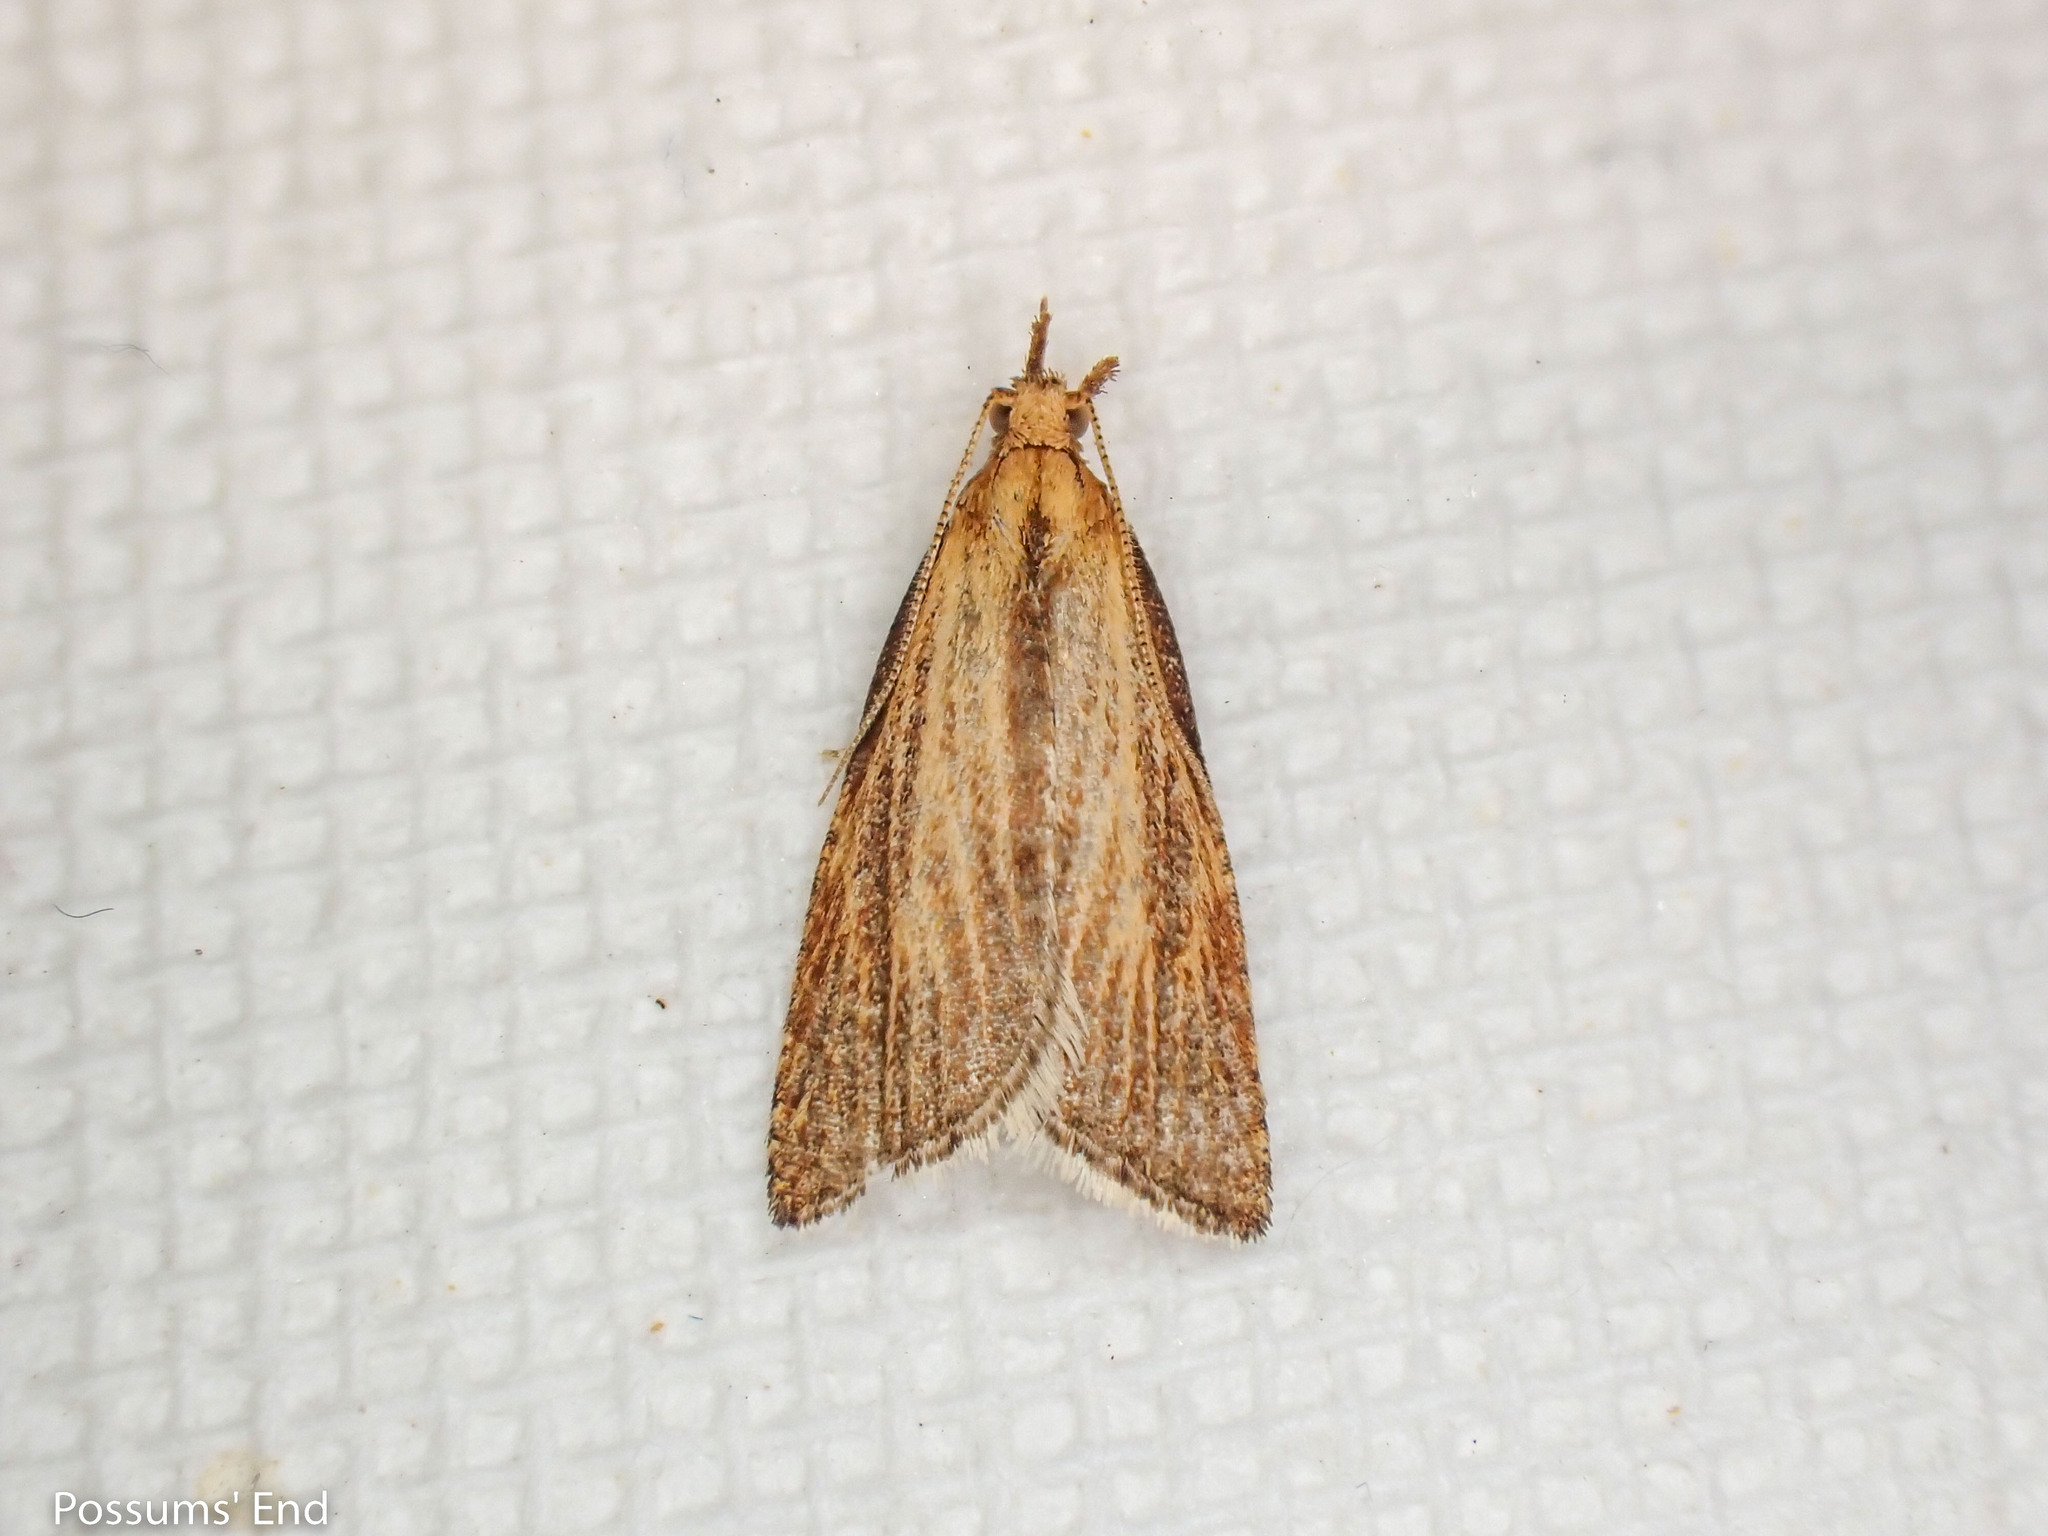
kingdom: Animalia
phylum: Arthropoda
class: Insecta
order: Lepidoptera
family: Tortricidae
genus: Catamacta
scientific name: Catamacta lotinana
